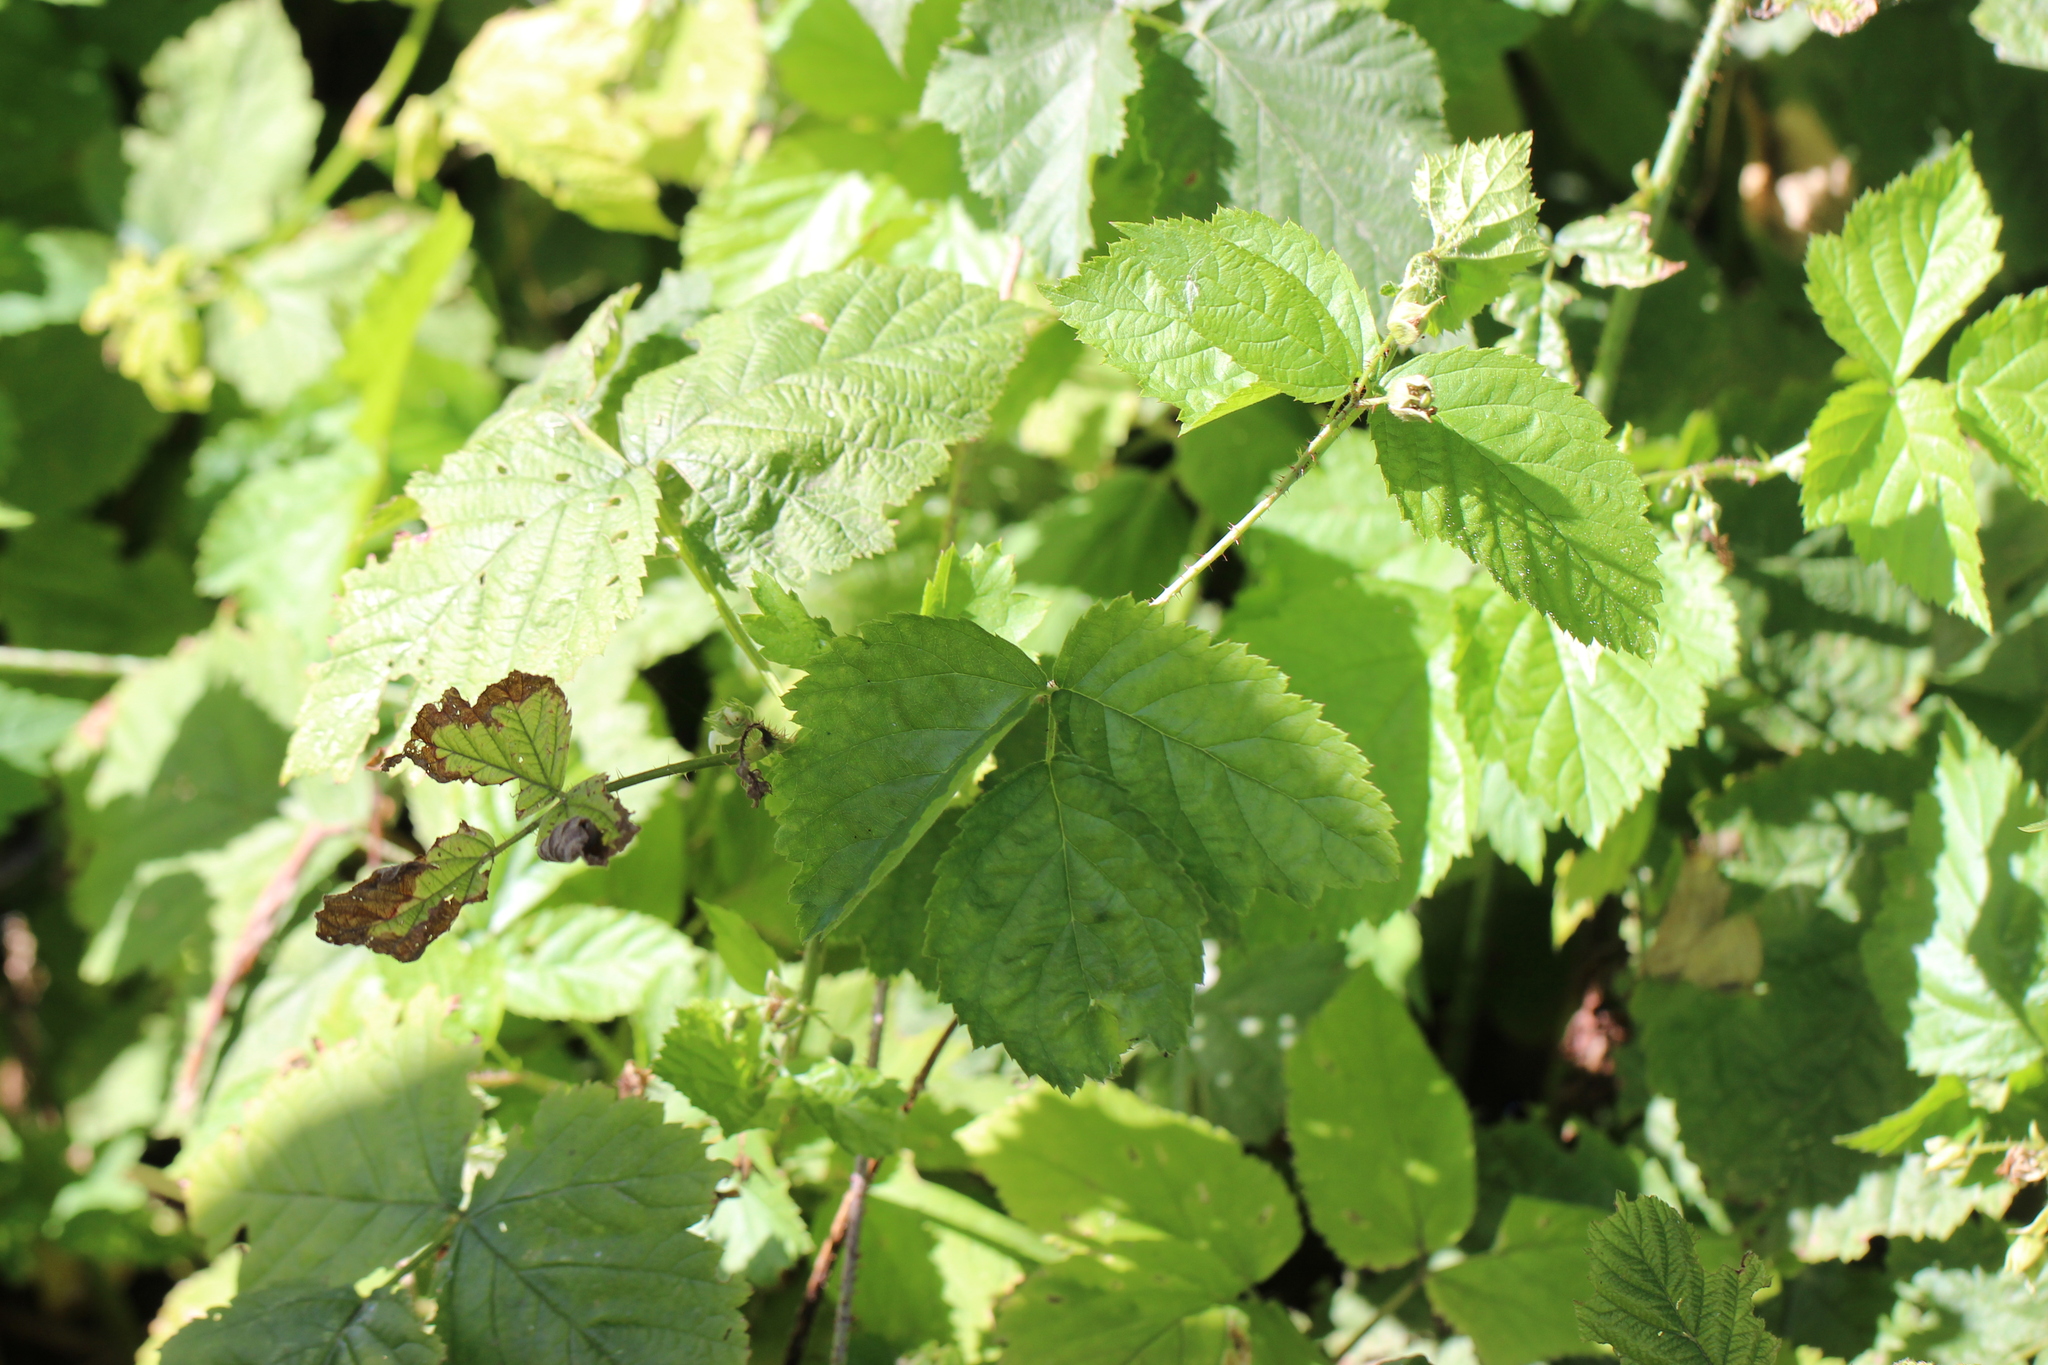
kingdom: Plantae
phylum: Tracheophyta
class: Magnoliopsida
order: Rosales
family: Rosaceae
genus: Rubus
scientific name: Rubus caesius
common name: Dewberry
